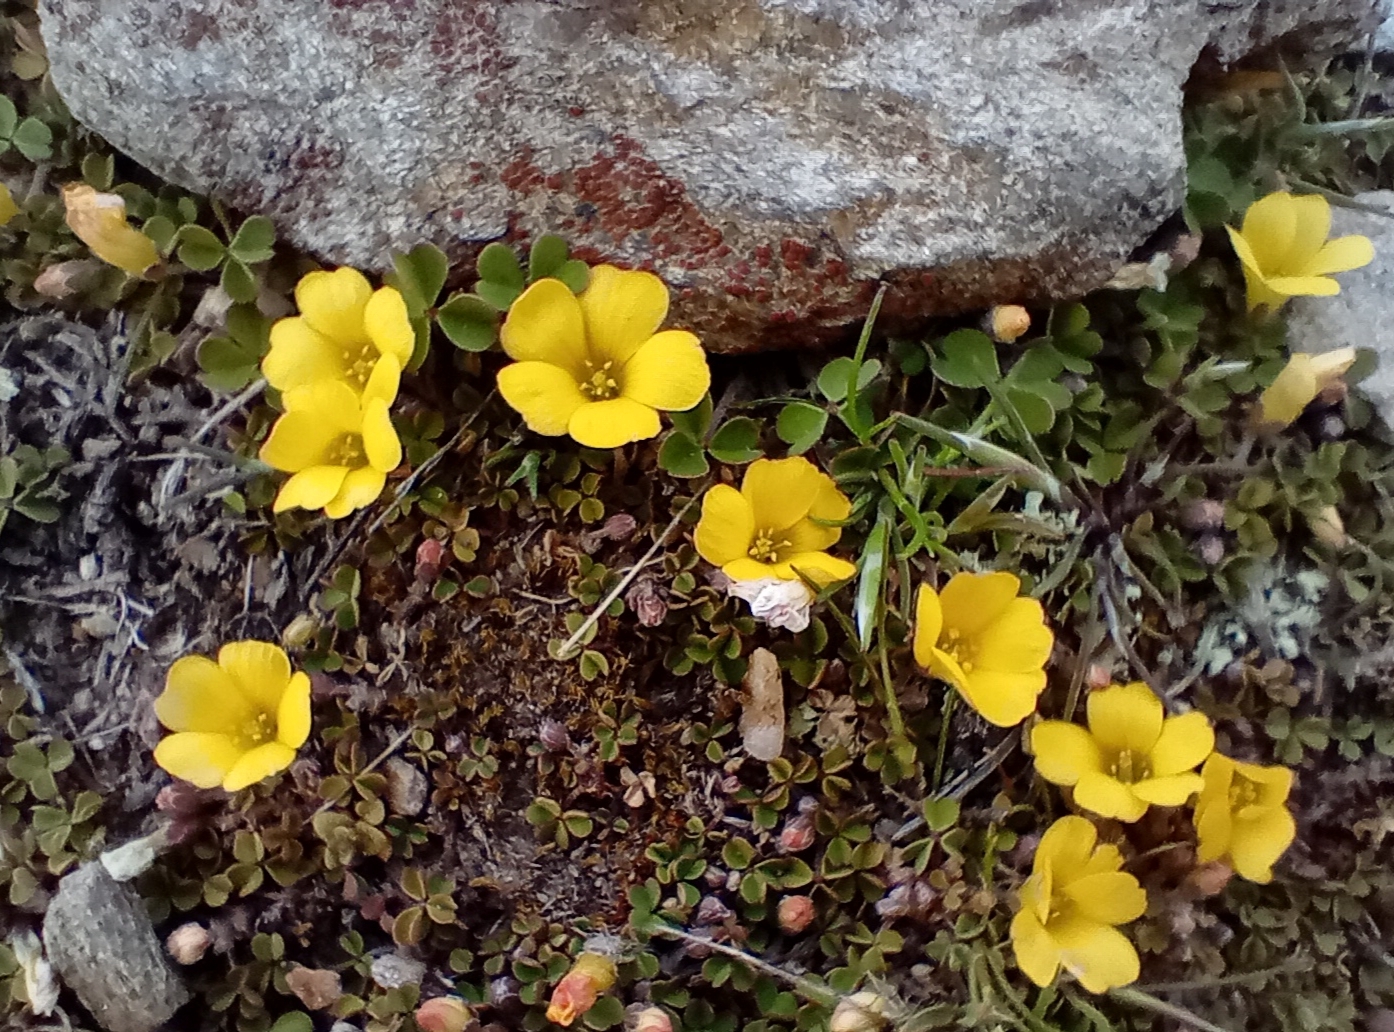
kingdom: Plantae
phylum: Tracheophyta
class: Magnoliopsida
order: Oxalidales
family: Oxalidaceae
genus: Oxalis
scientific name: Oxalis exilis
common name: Least yellow-sorrel
